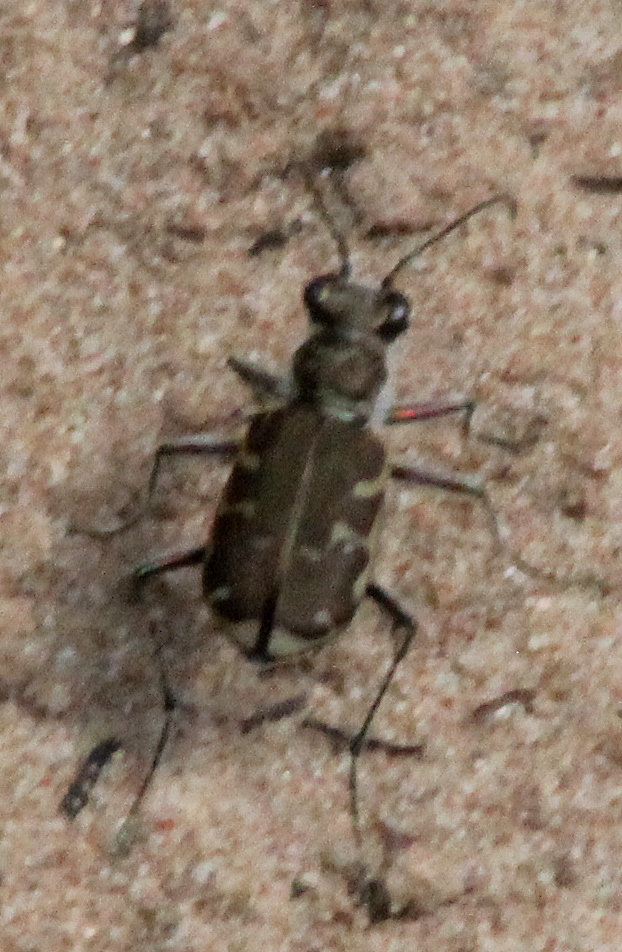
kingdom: Animalia
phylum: Arthropoda
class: Insecta
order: Coleoptera
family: Carabidae
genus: Cicindela
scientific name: Cicindela repanda
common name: Bronzed tiger beetle
